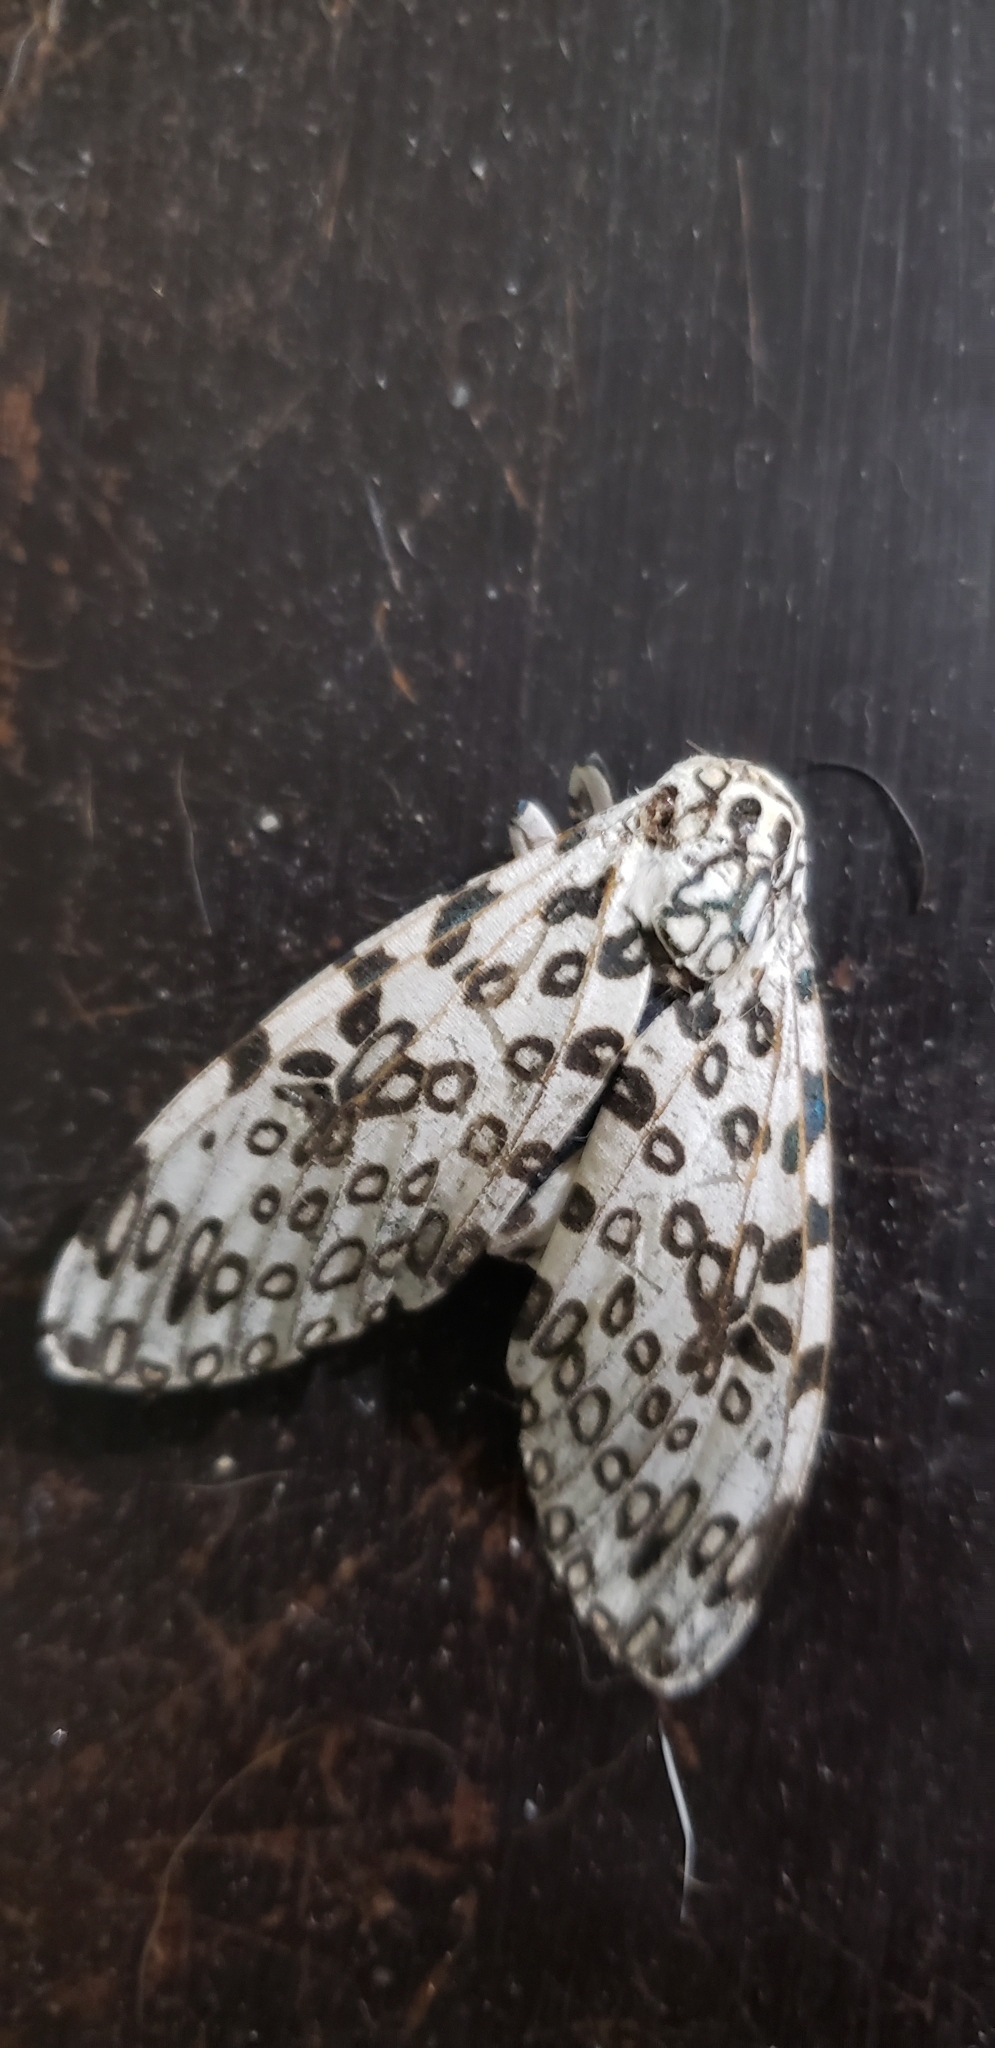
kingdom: Animalia
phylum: Arthropoda
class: Insecta
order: Lepidoptera
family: Erebidae
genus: Hypercompe
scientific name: Hypercompe scribonia
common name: Giant leopard moth
